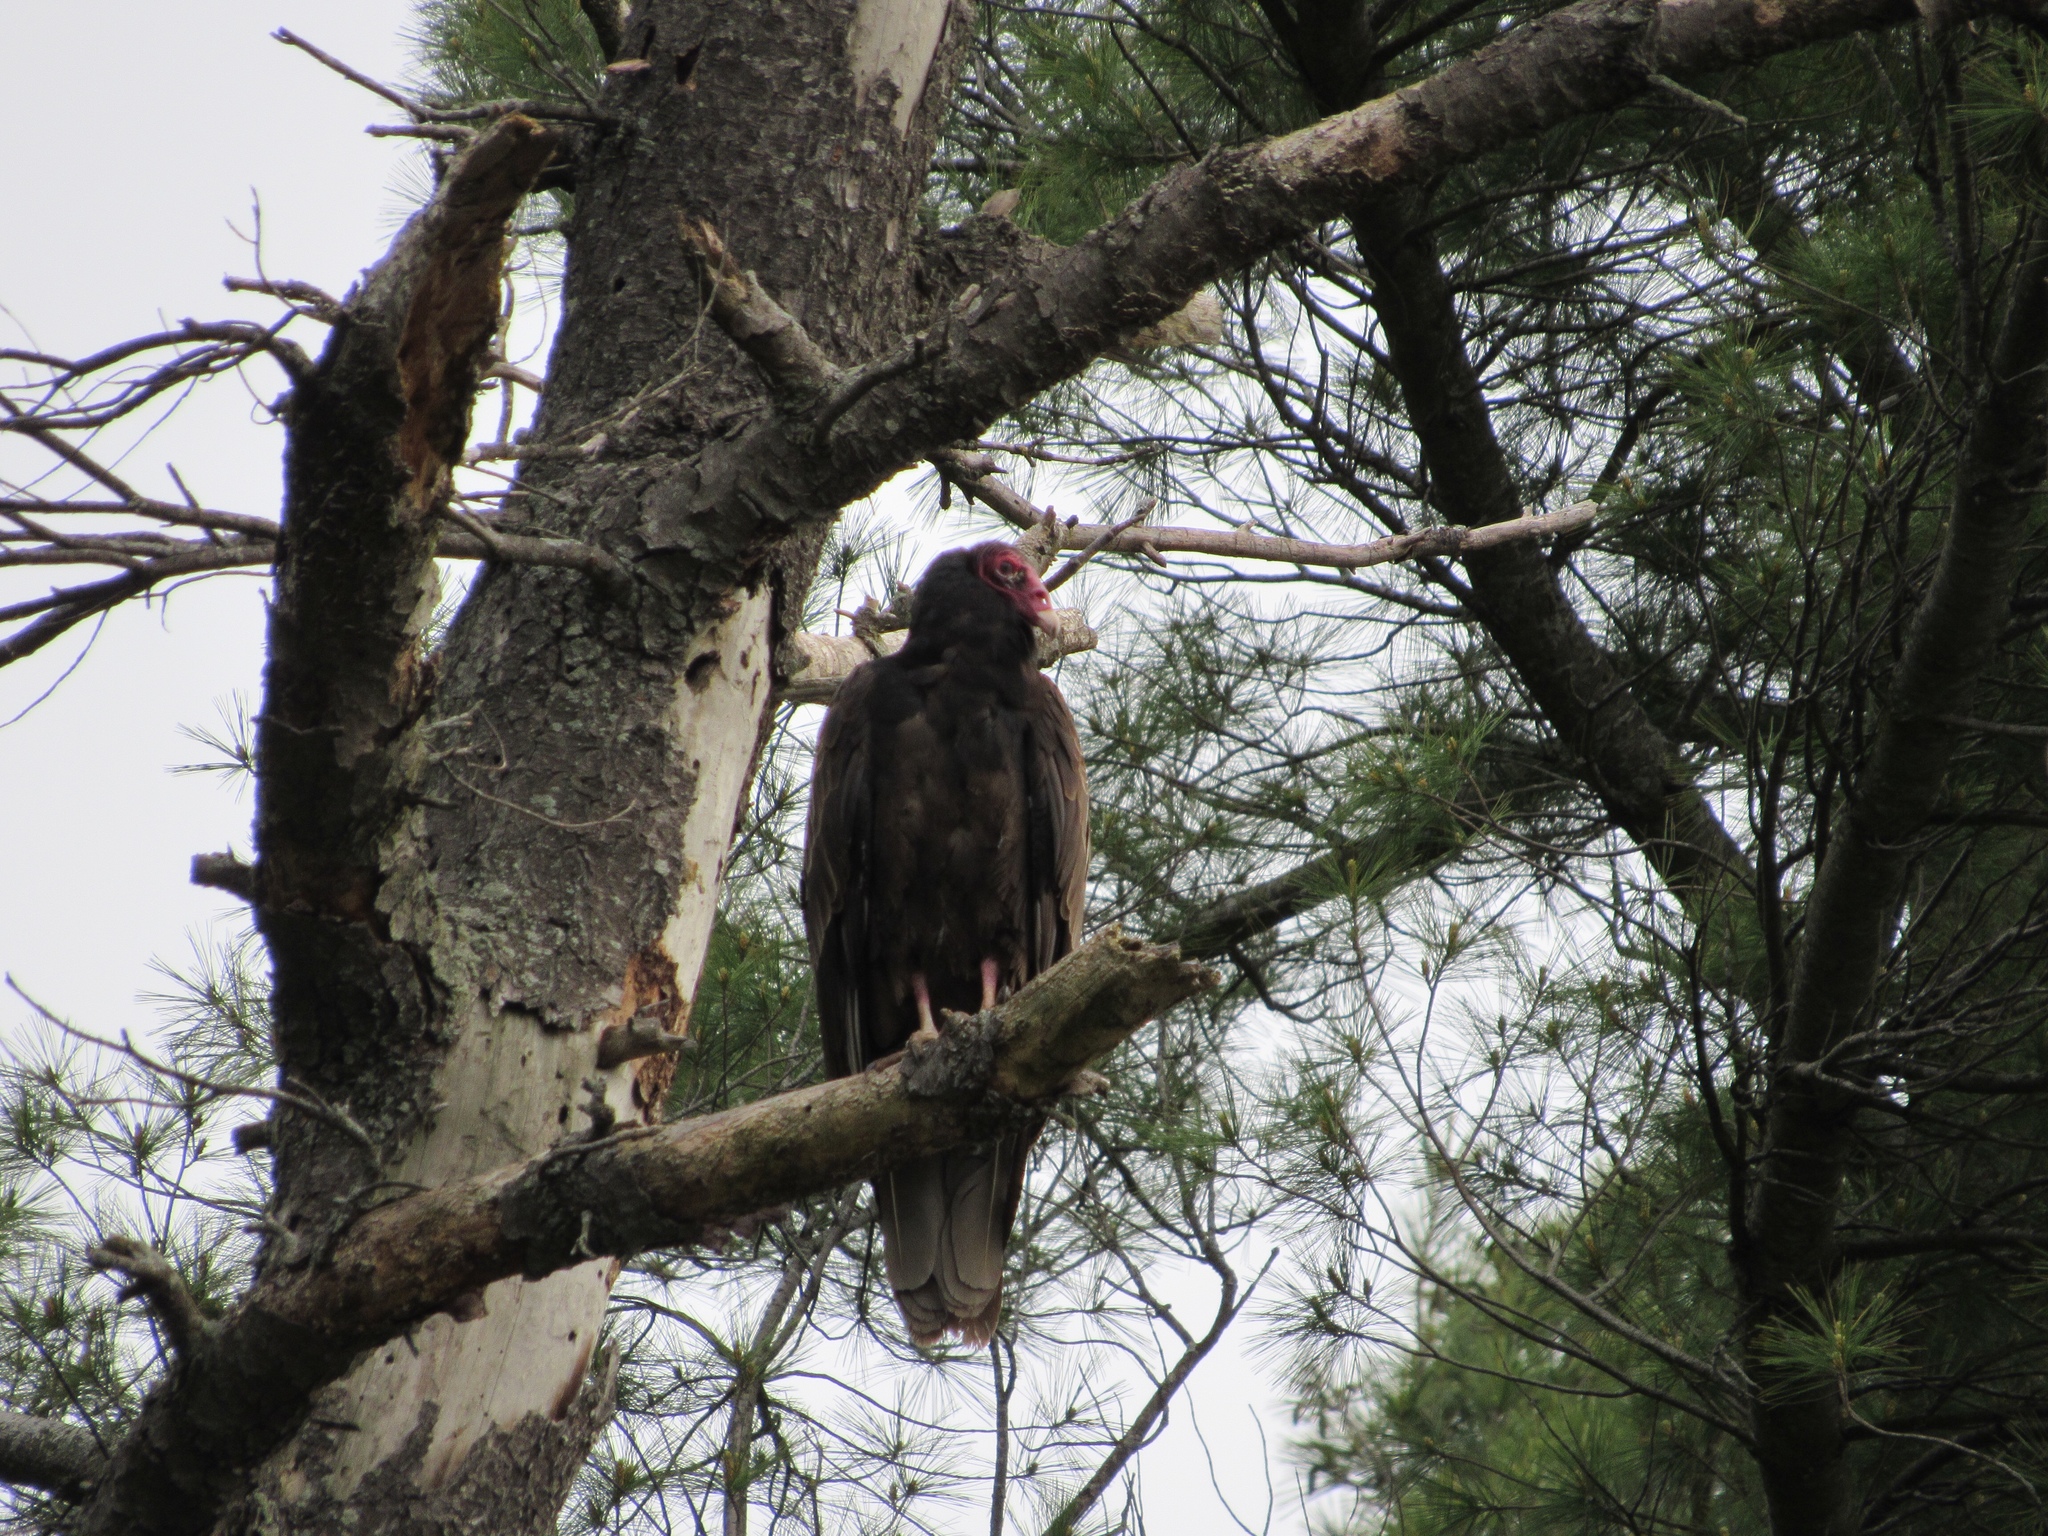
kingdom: Animalia
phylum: Chordata
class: Aves
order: Accipitriformes
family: Cathartidae
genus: Cathartes
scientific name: Cathartes aura
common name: Turkey vulture
